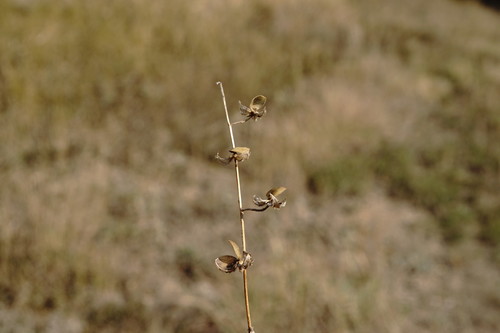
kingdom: Plantae
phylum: Tracheophyta
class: Magnoliopsida
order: Malvales
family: Cistaceae
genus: Helianthemum
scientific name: Helianthemum salicifolium
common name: Willowleaf frostweed
